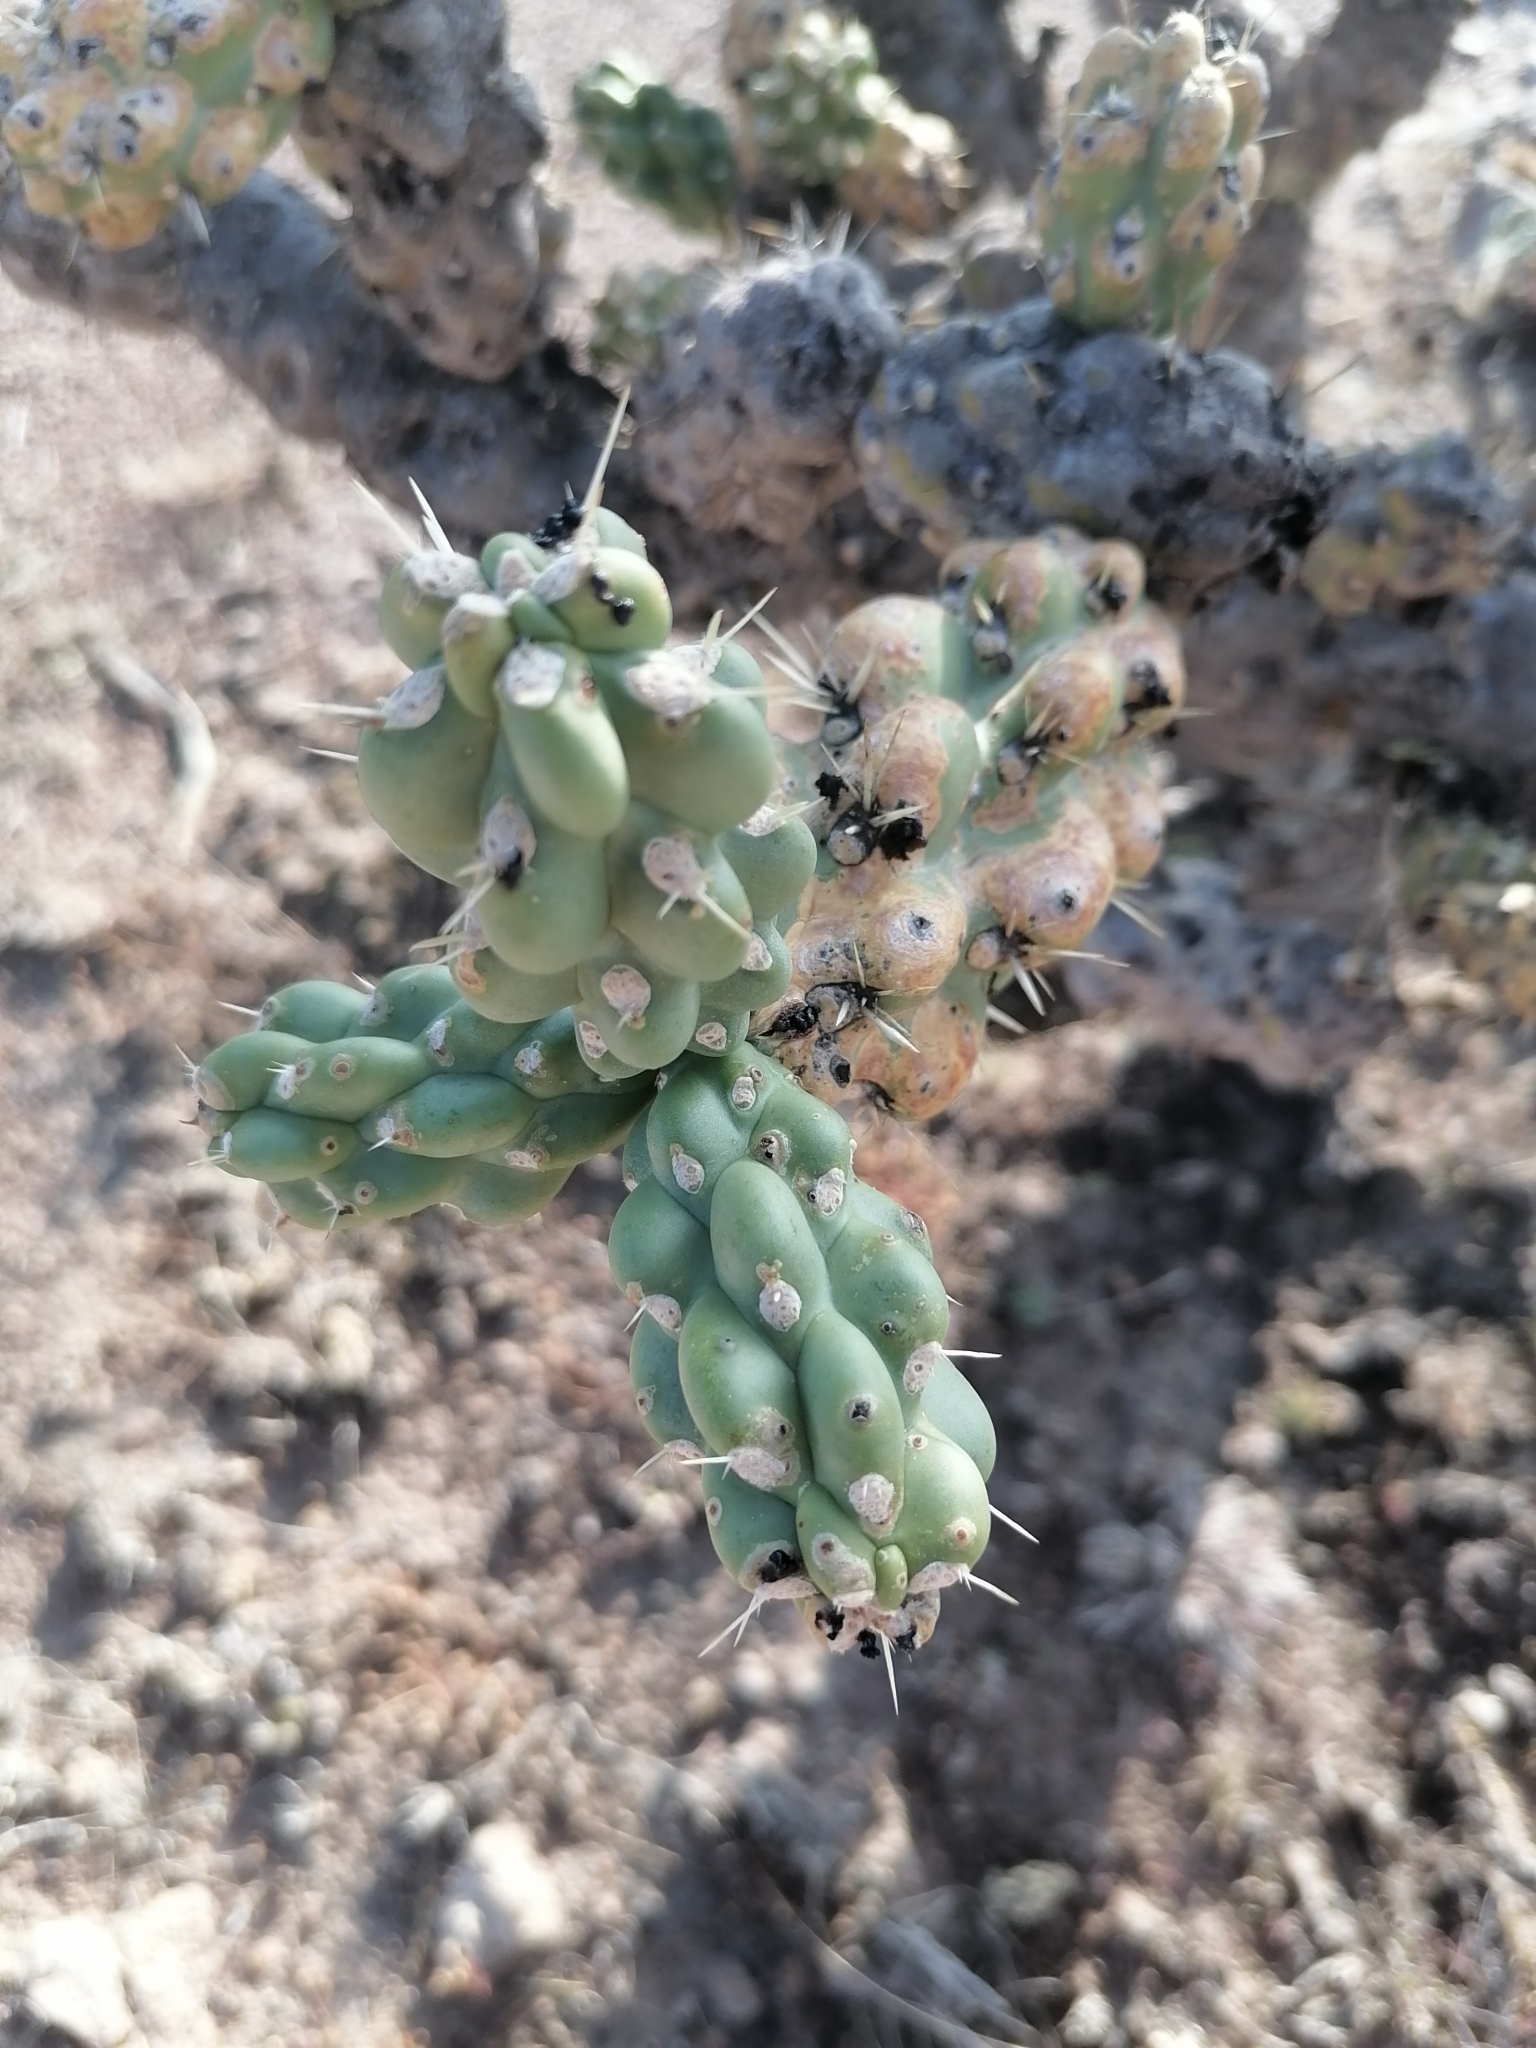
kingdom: Plantae
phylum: Tracheophyta
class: Magnoliopsida
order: Caryophyllales
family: Cactaceae
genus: Cylindropuntia
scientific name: Cylindropuntia imbricata
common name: Candelabrum cactus
